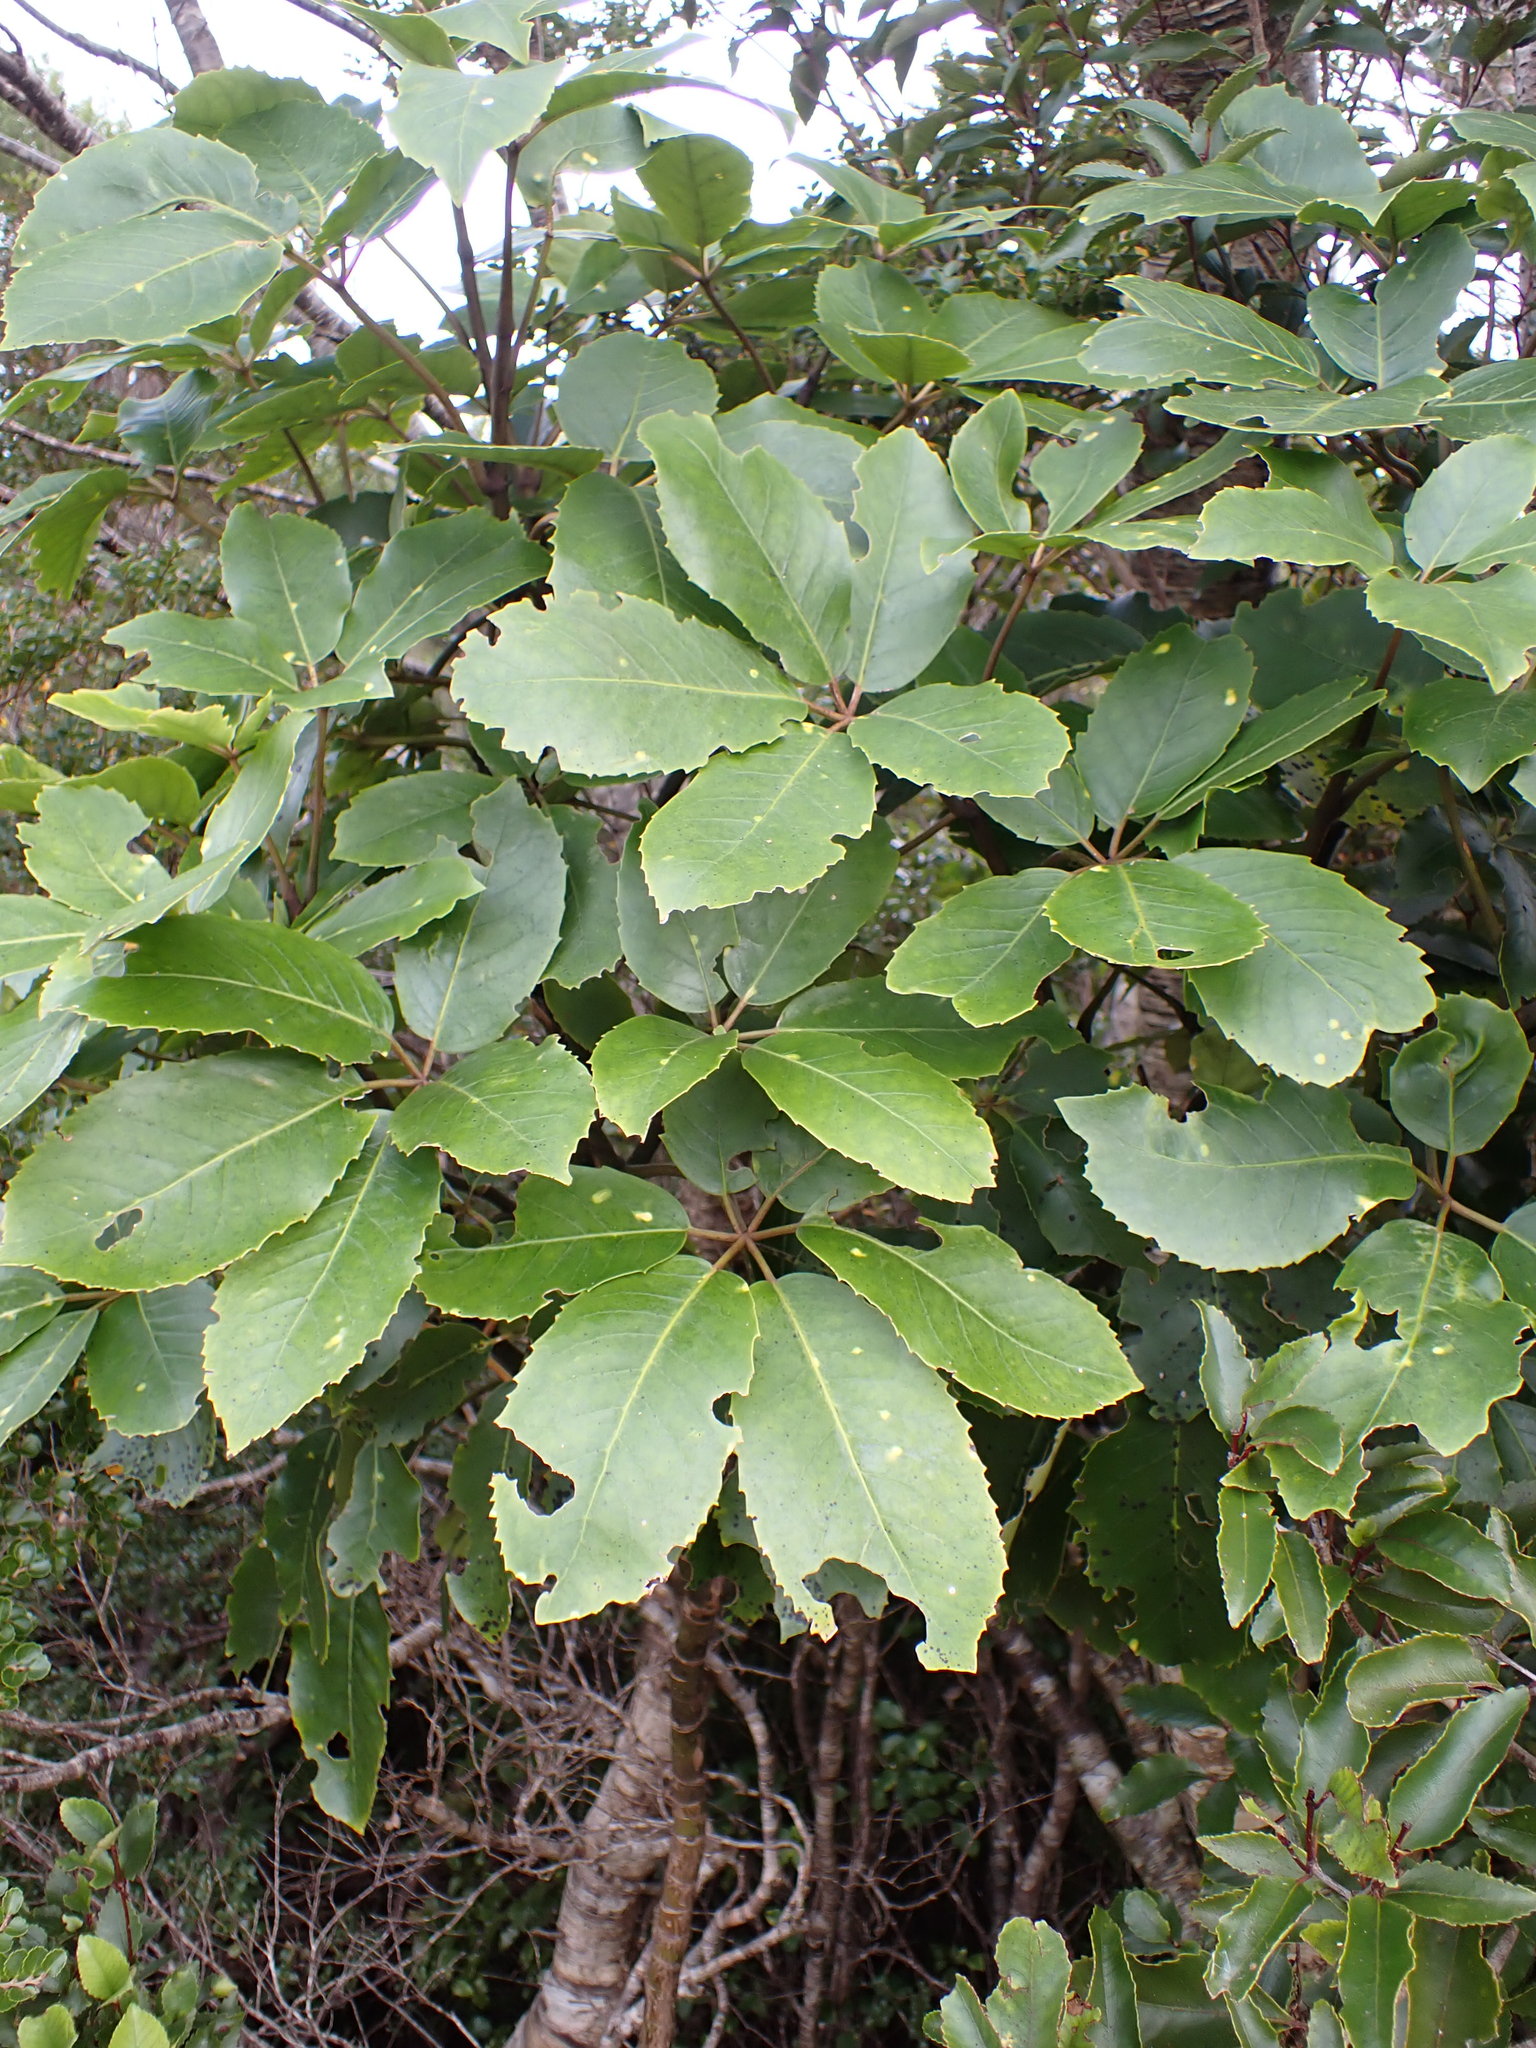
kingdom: Plantae
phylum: Tracheophyta
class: Magnoliopsida
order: Apiales
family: Araliaceae
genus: Neopanax
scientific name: Neopanax arboreus
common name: Five-fingers
